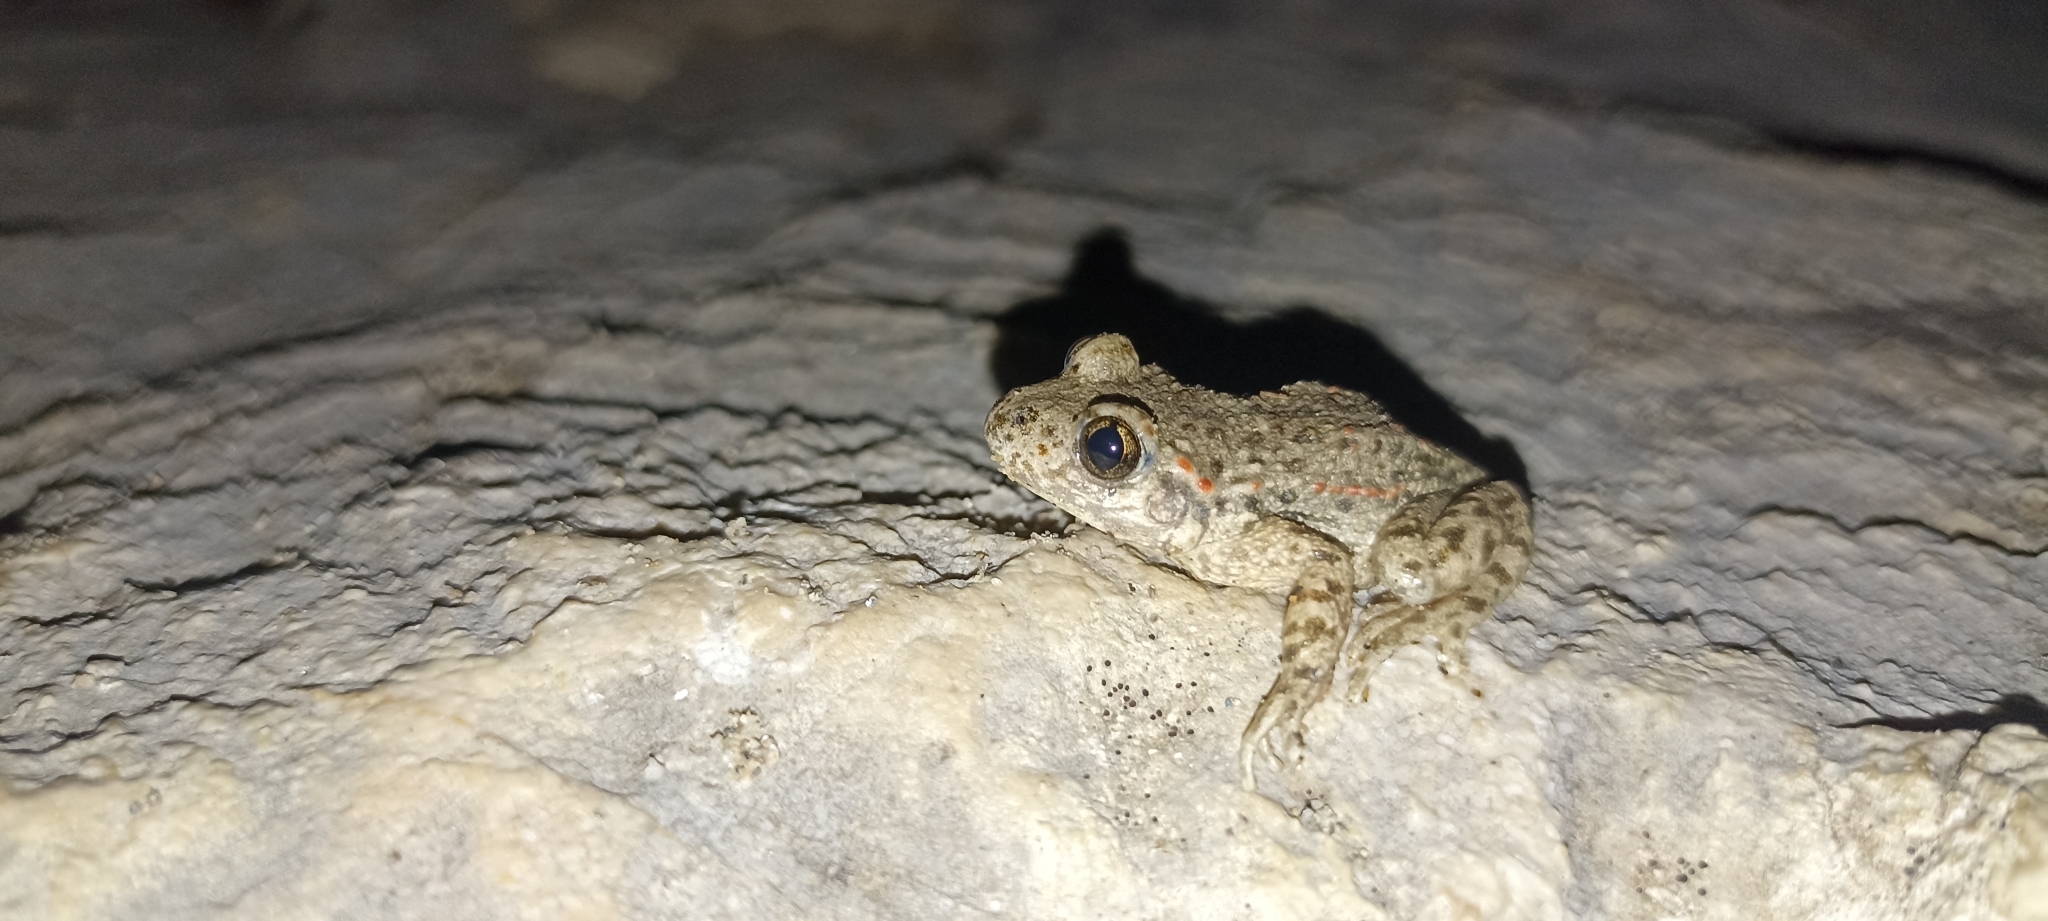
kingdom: Animalia
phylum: Chordata
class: Amphibia
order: Anura
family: Alytidae
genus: Alytes
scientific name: Alytes obstetricans
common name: Midwife toad
